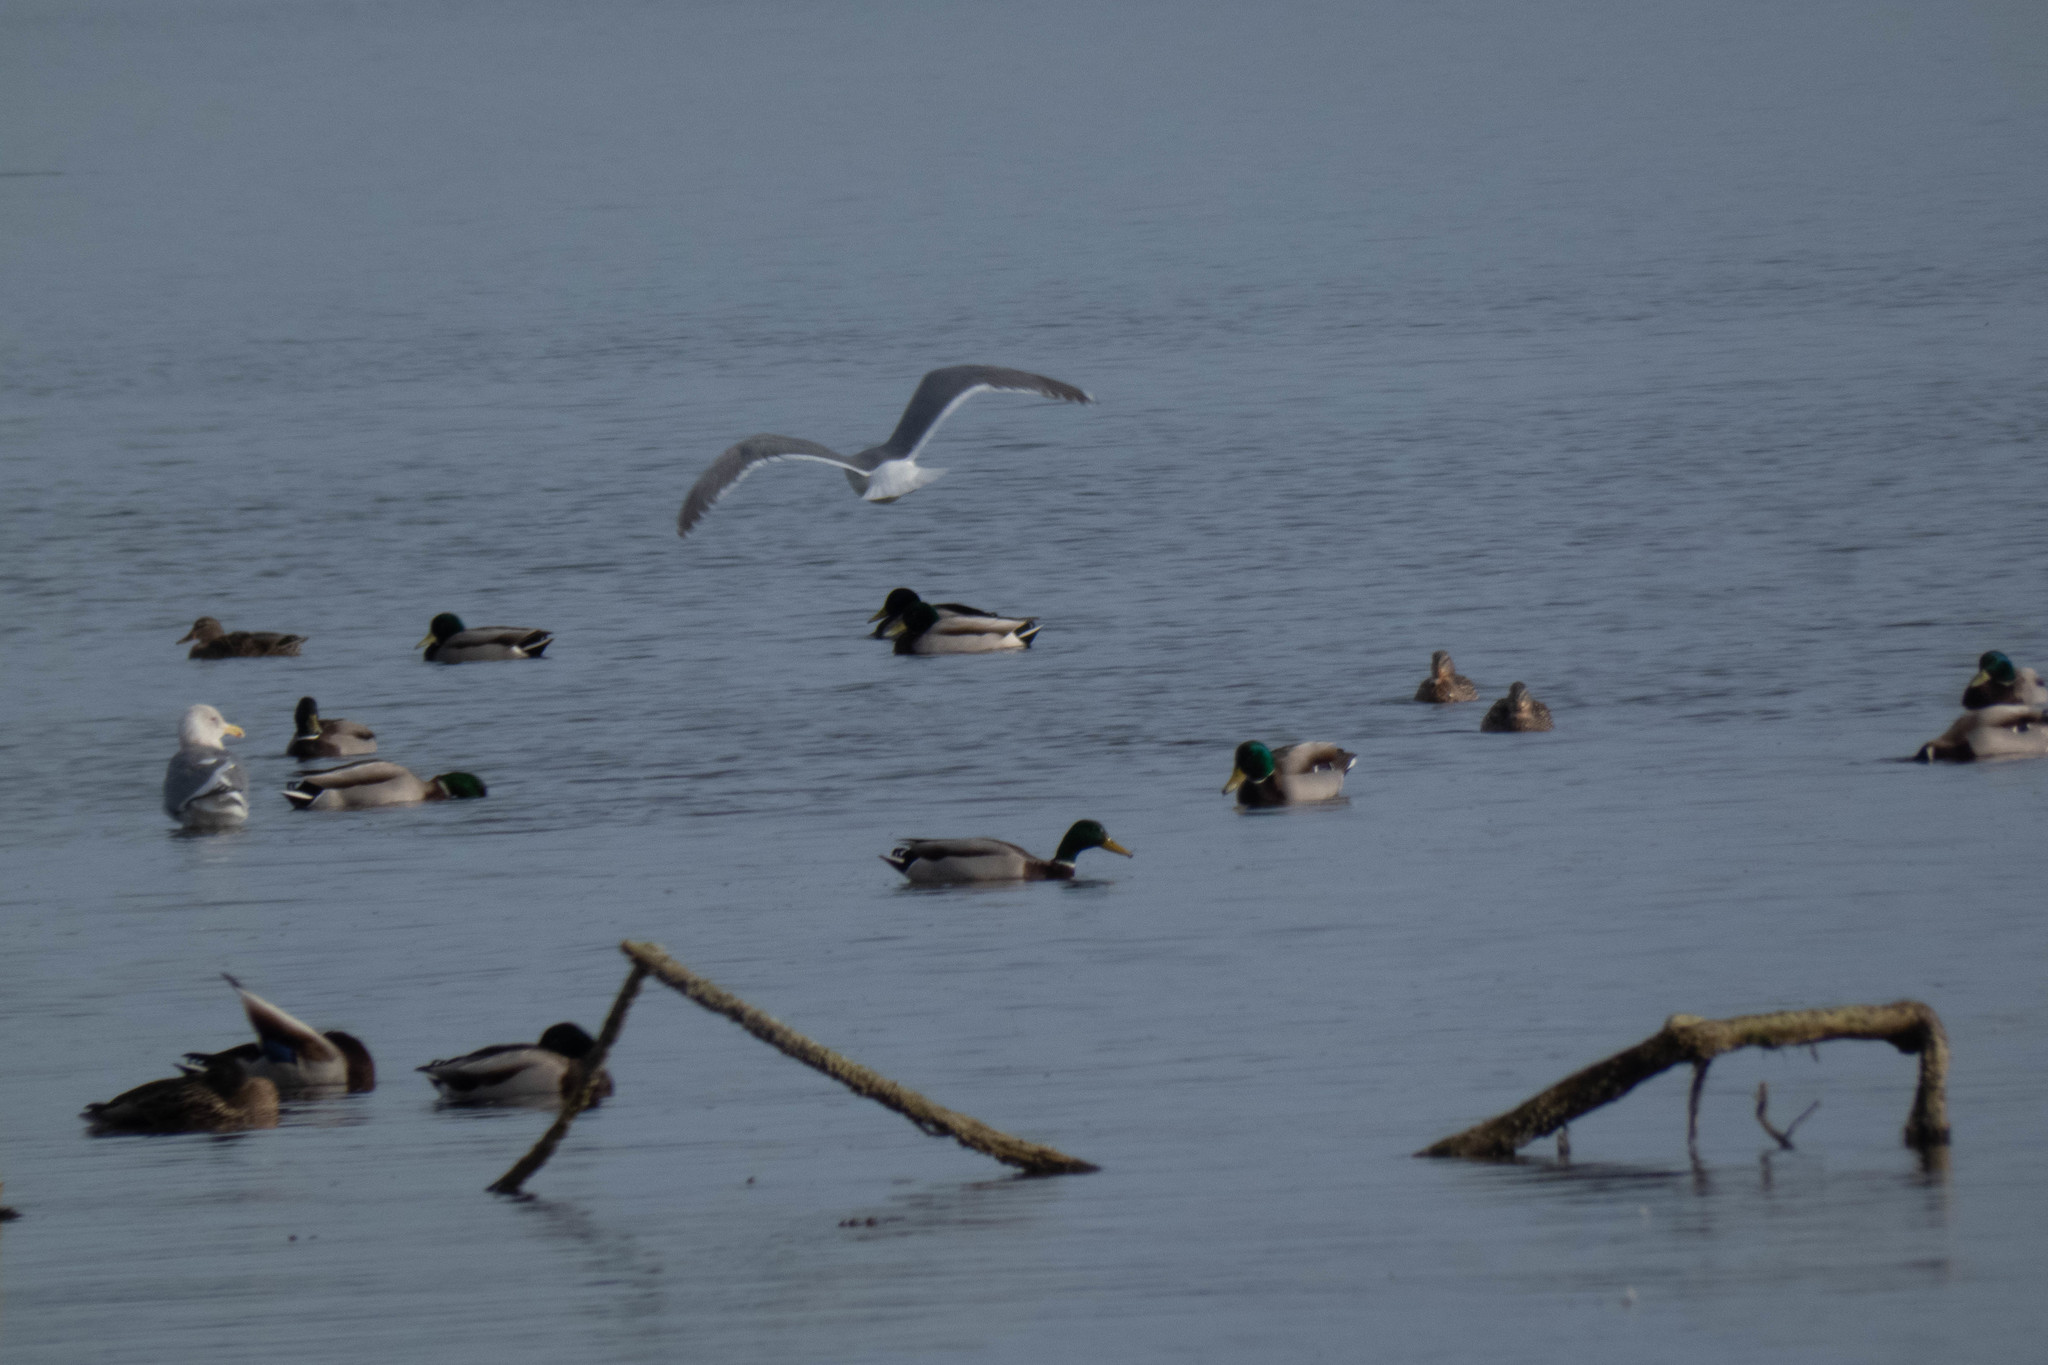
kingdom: Animalia
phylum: Chordata
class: Aves
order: Anseriformes
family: Anatidae
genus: Anas
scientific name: Anas platyrhynchos
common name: Mallard
